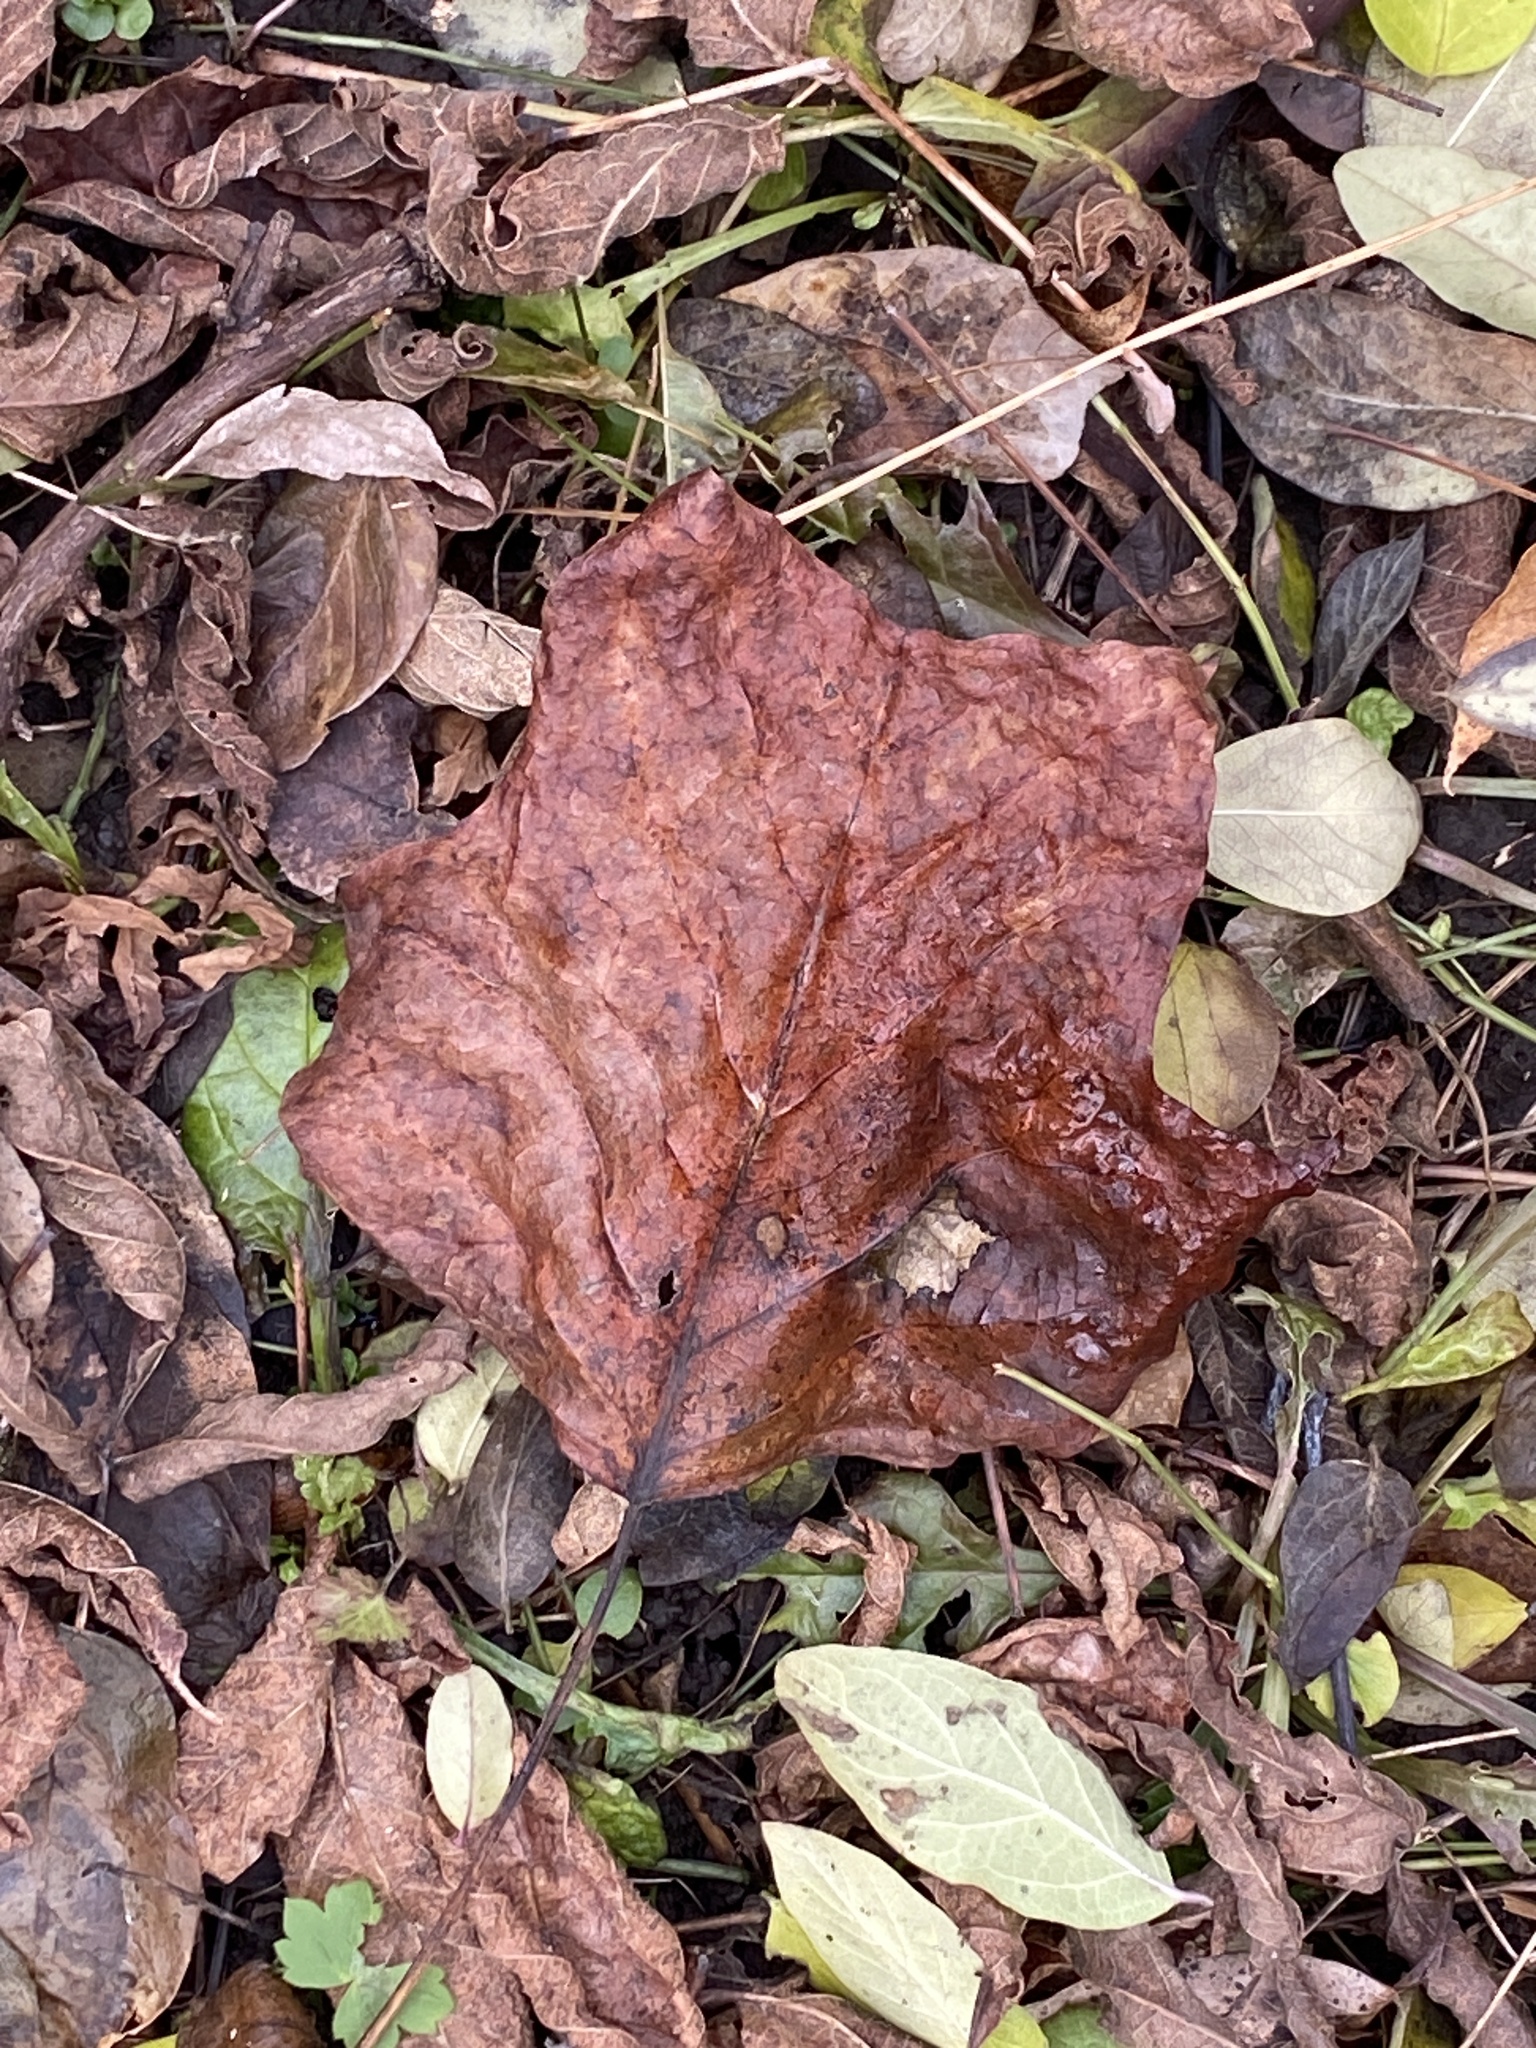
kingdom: Plantae
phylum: Tracheophyta
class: Magnoliopsida
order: Magnoliales
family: Magnoliaceae
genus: Liriodendron
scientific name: Liriodendron tulipifera
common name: Tulip tree
